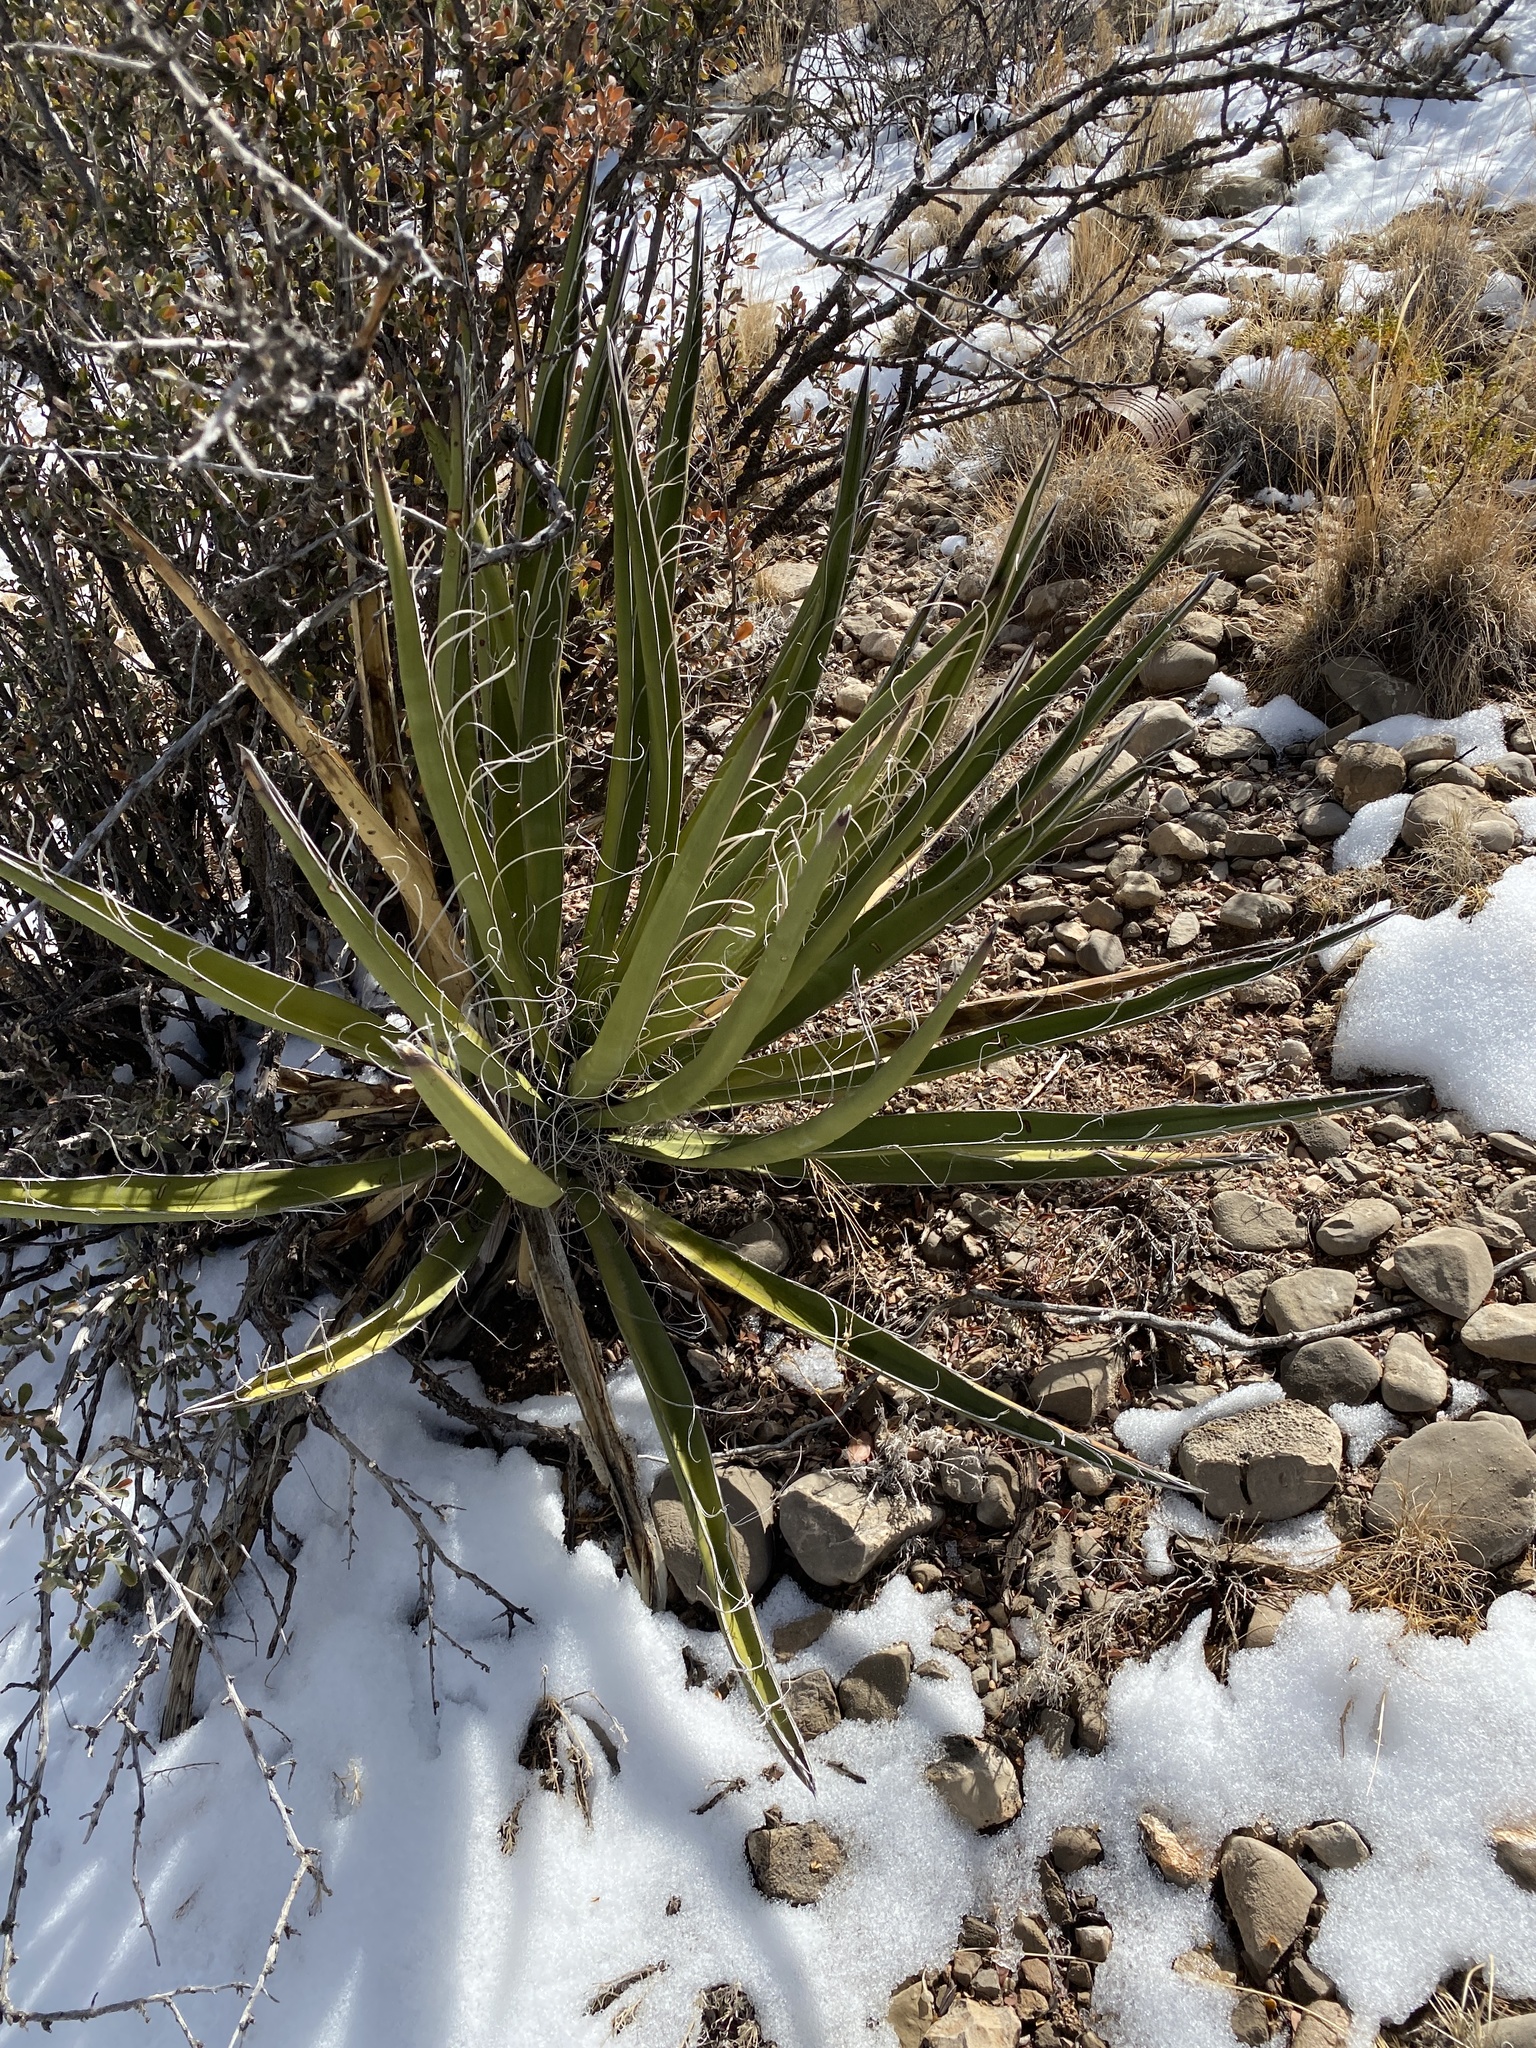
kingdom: Plantae
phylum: Tracheophyta
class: Liliopsida
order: Asparagales
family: Asparagaceae
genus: Yucca
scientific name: Yucca baccata
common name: Banana yucca
